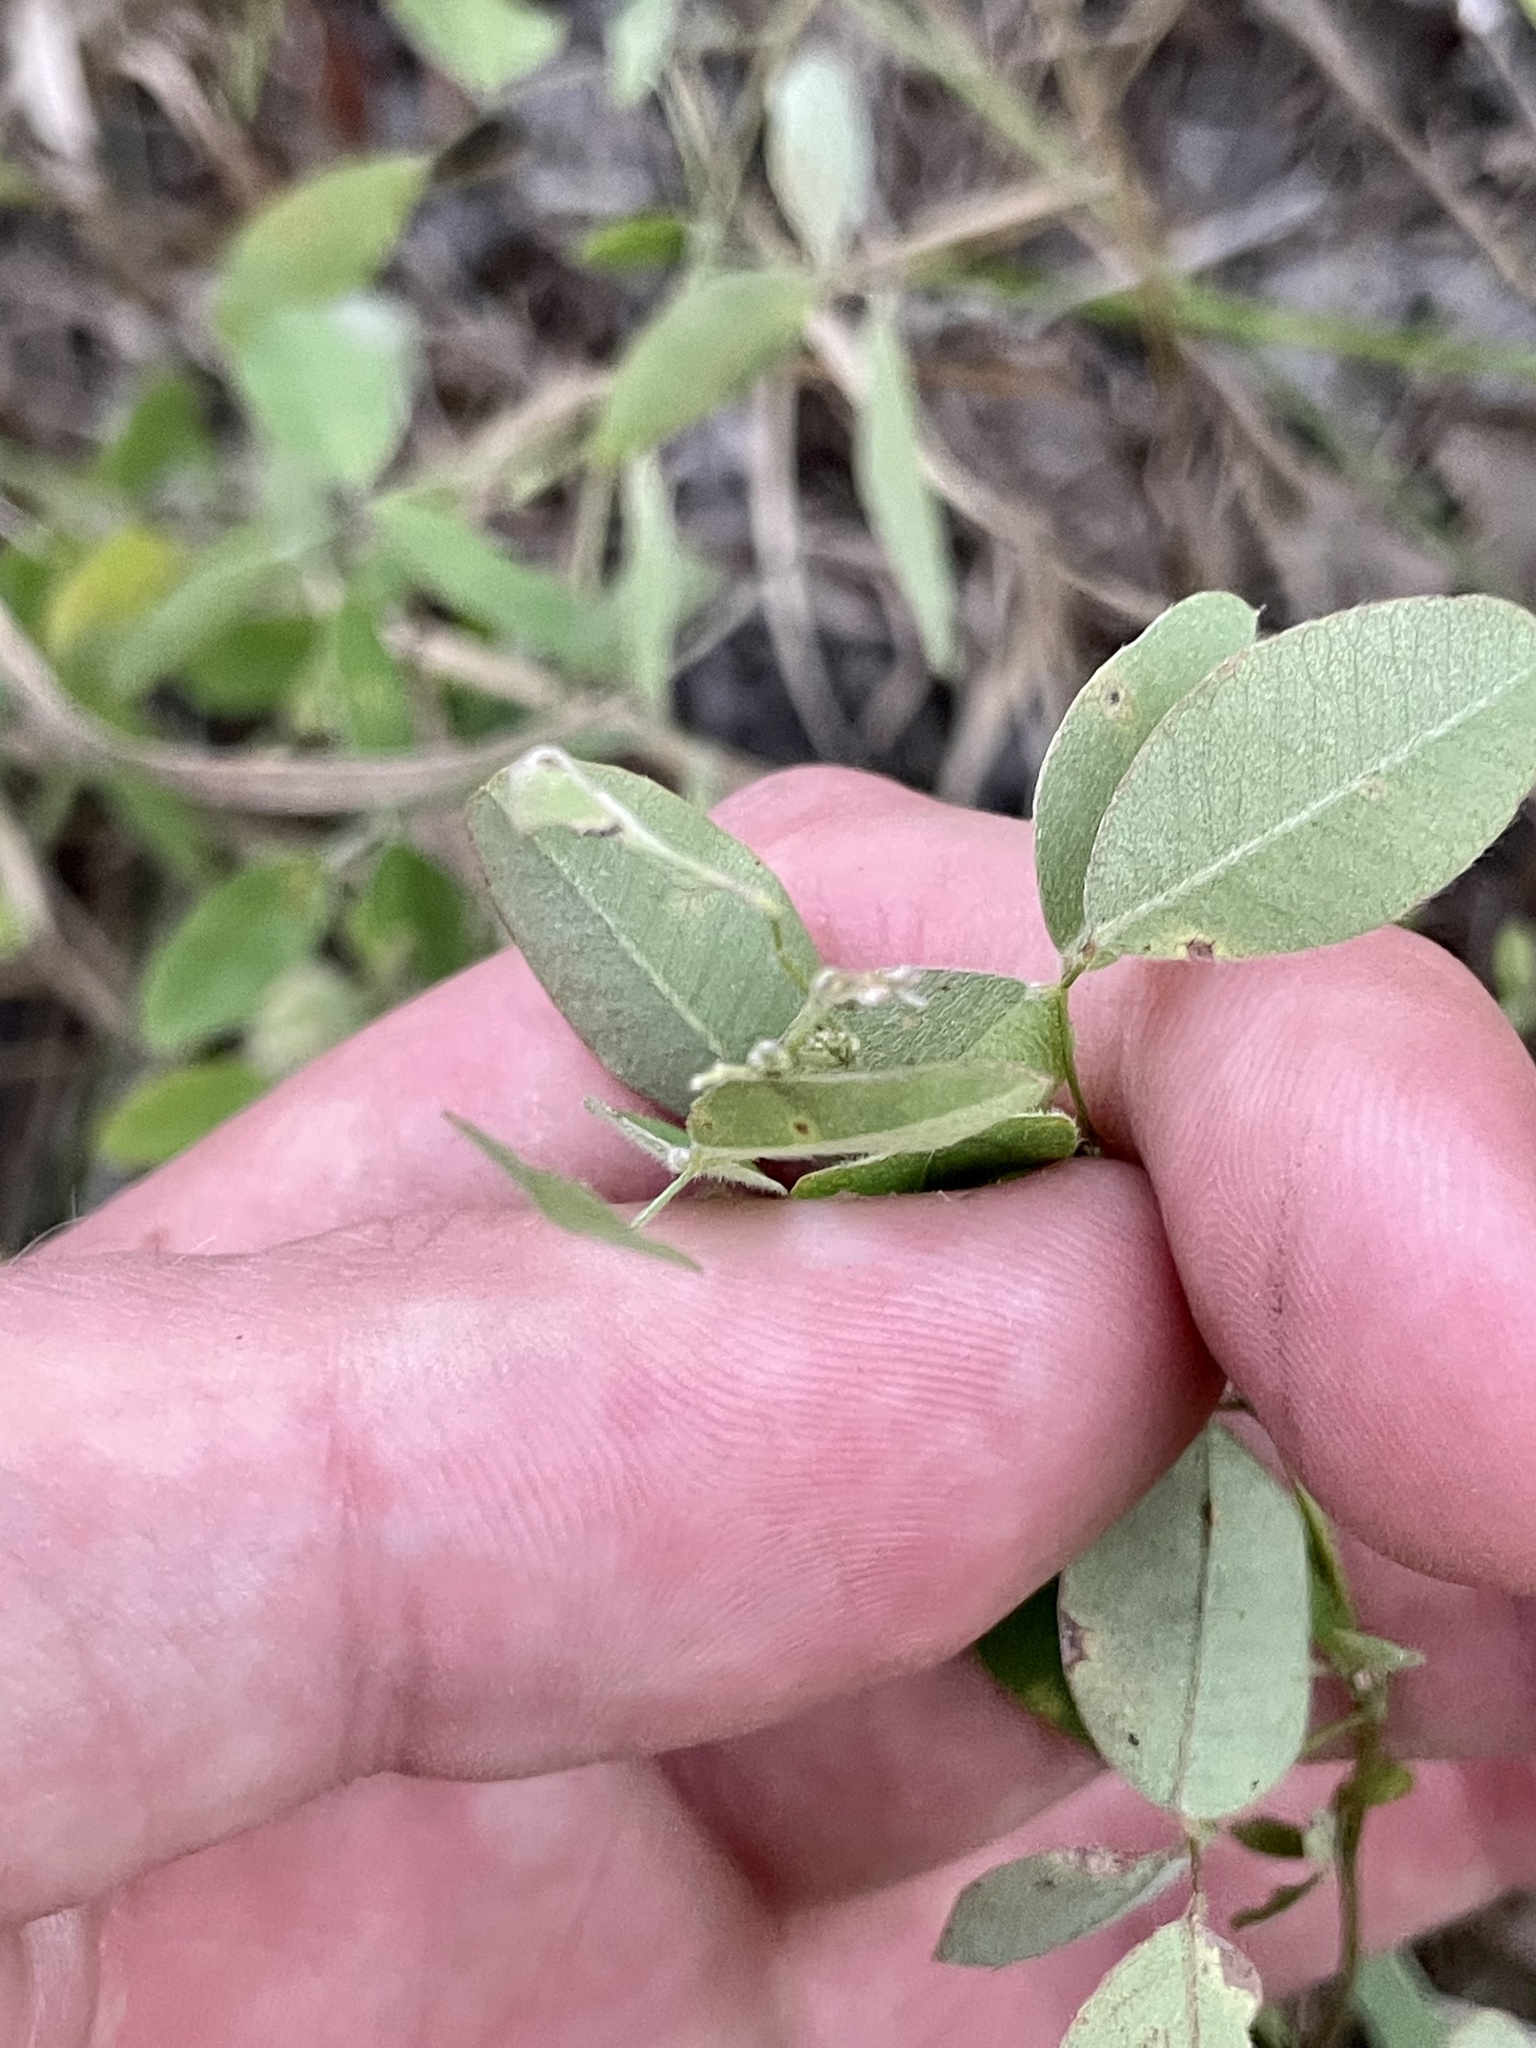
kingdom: Plantae
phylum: Tracheophyta
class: Magnoliopsida
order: Fabales
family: Fabaceae
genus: Lespedeza
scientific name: Lespedeza violacea
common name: Wand bush-clover
